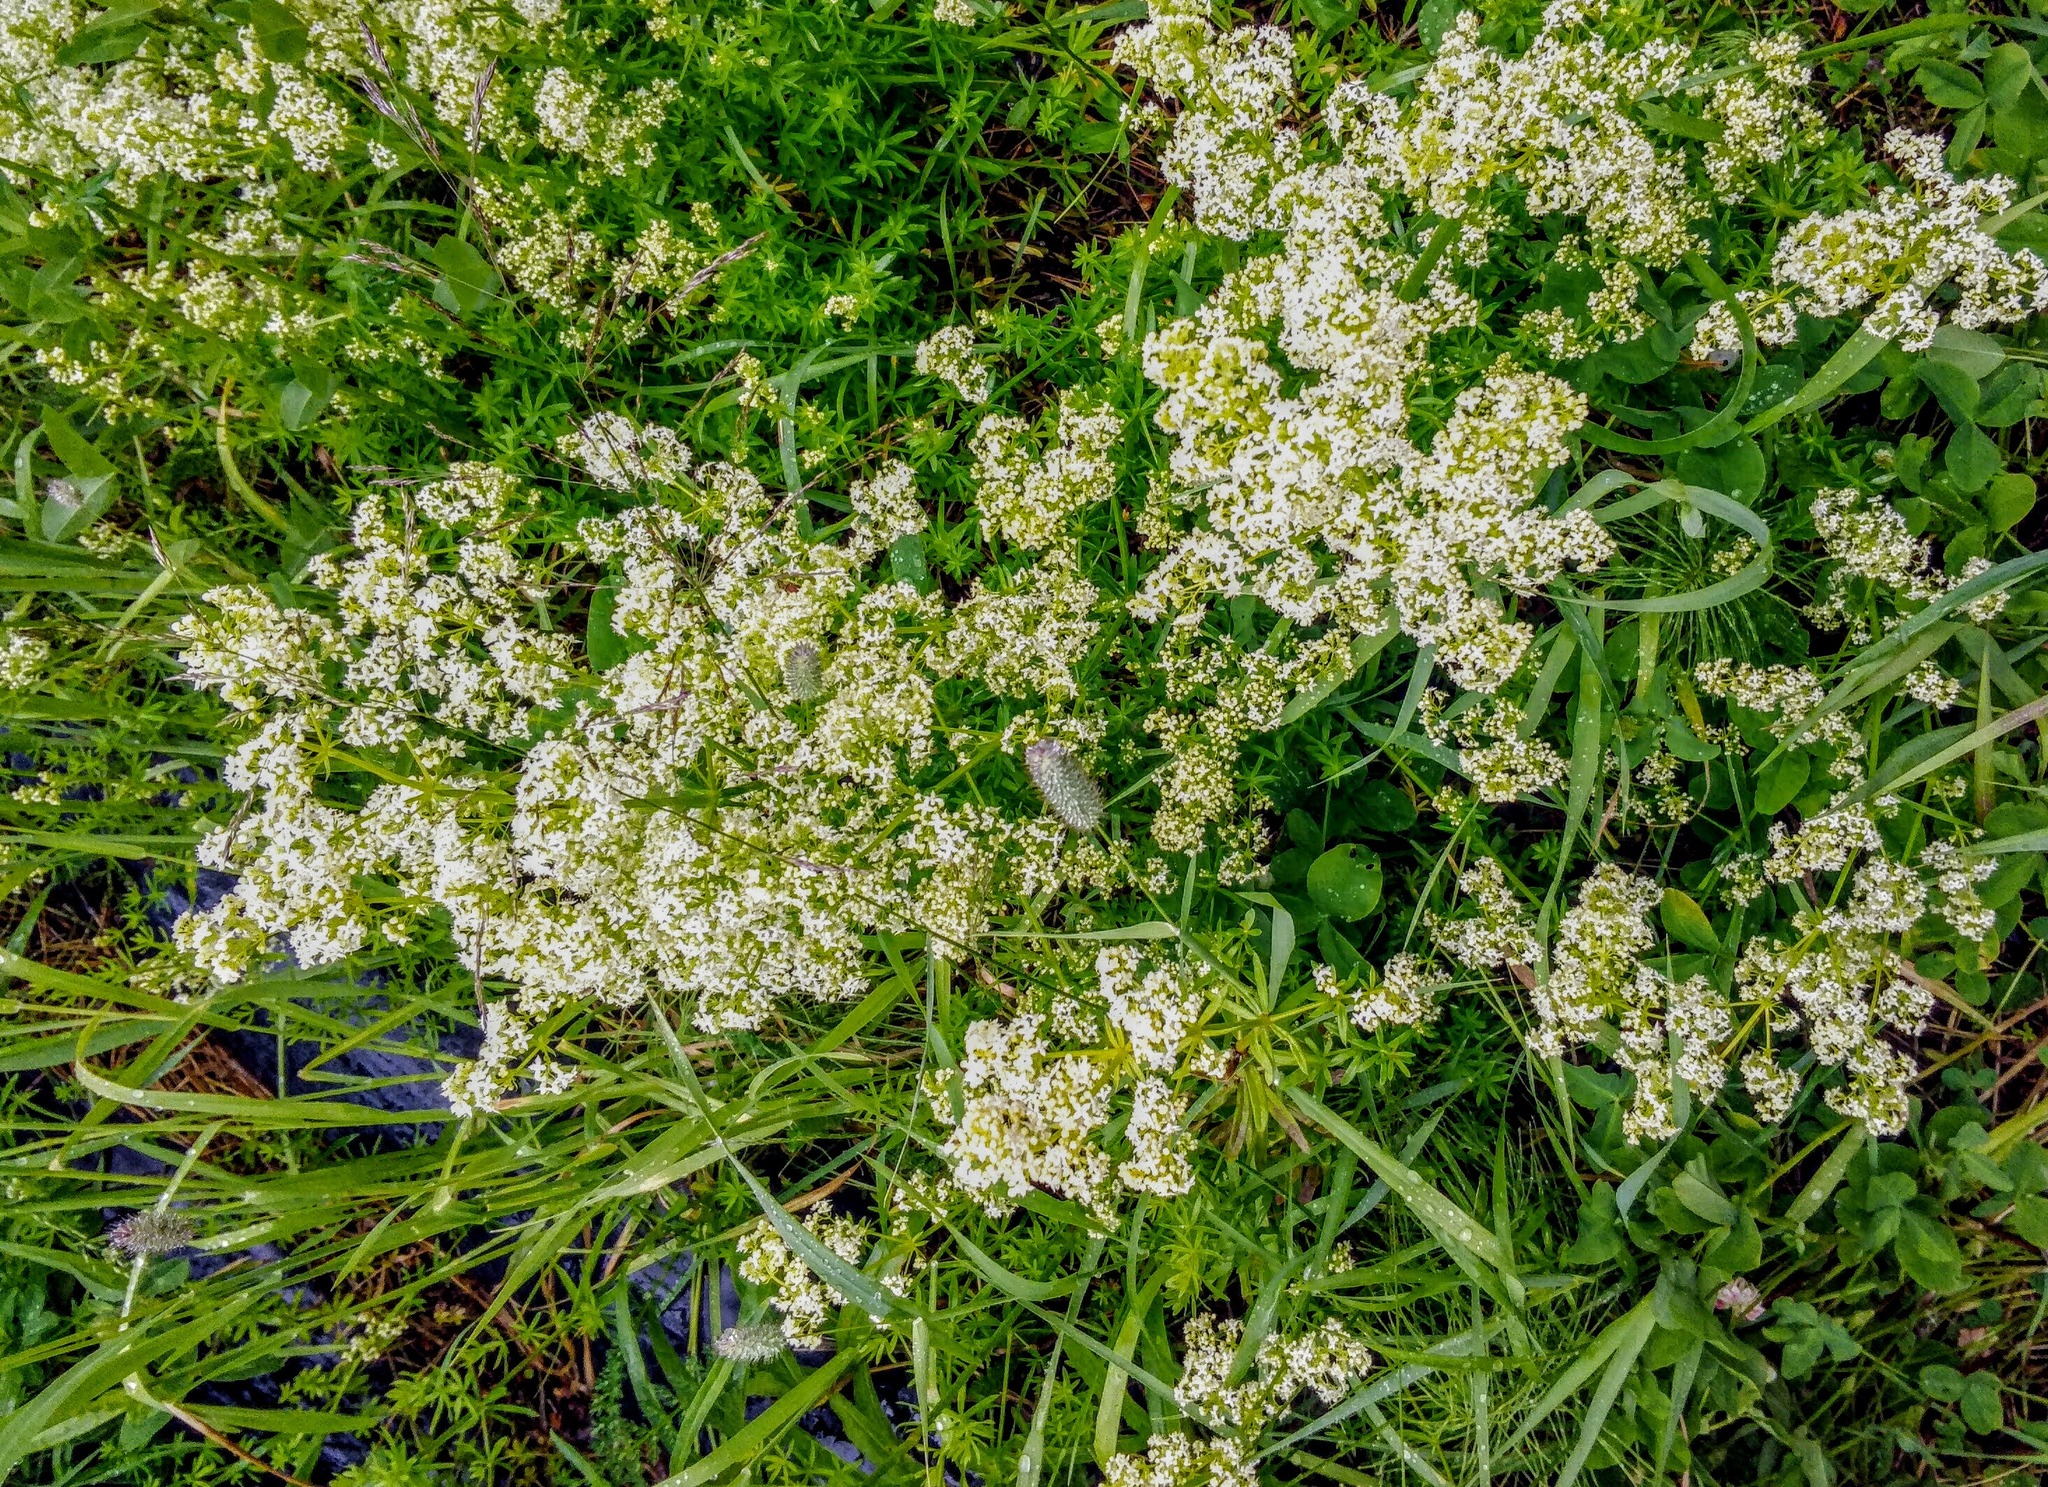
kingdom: Plantae
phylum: Tracheophyta
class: Magnoliopsida
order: Gentianales
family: Rubiaceae
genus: Galium
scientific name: Galium mollugo
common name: Hedge bedstraw
